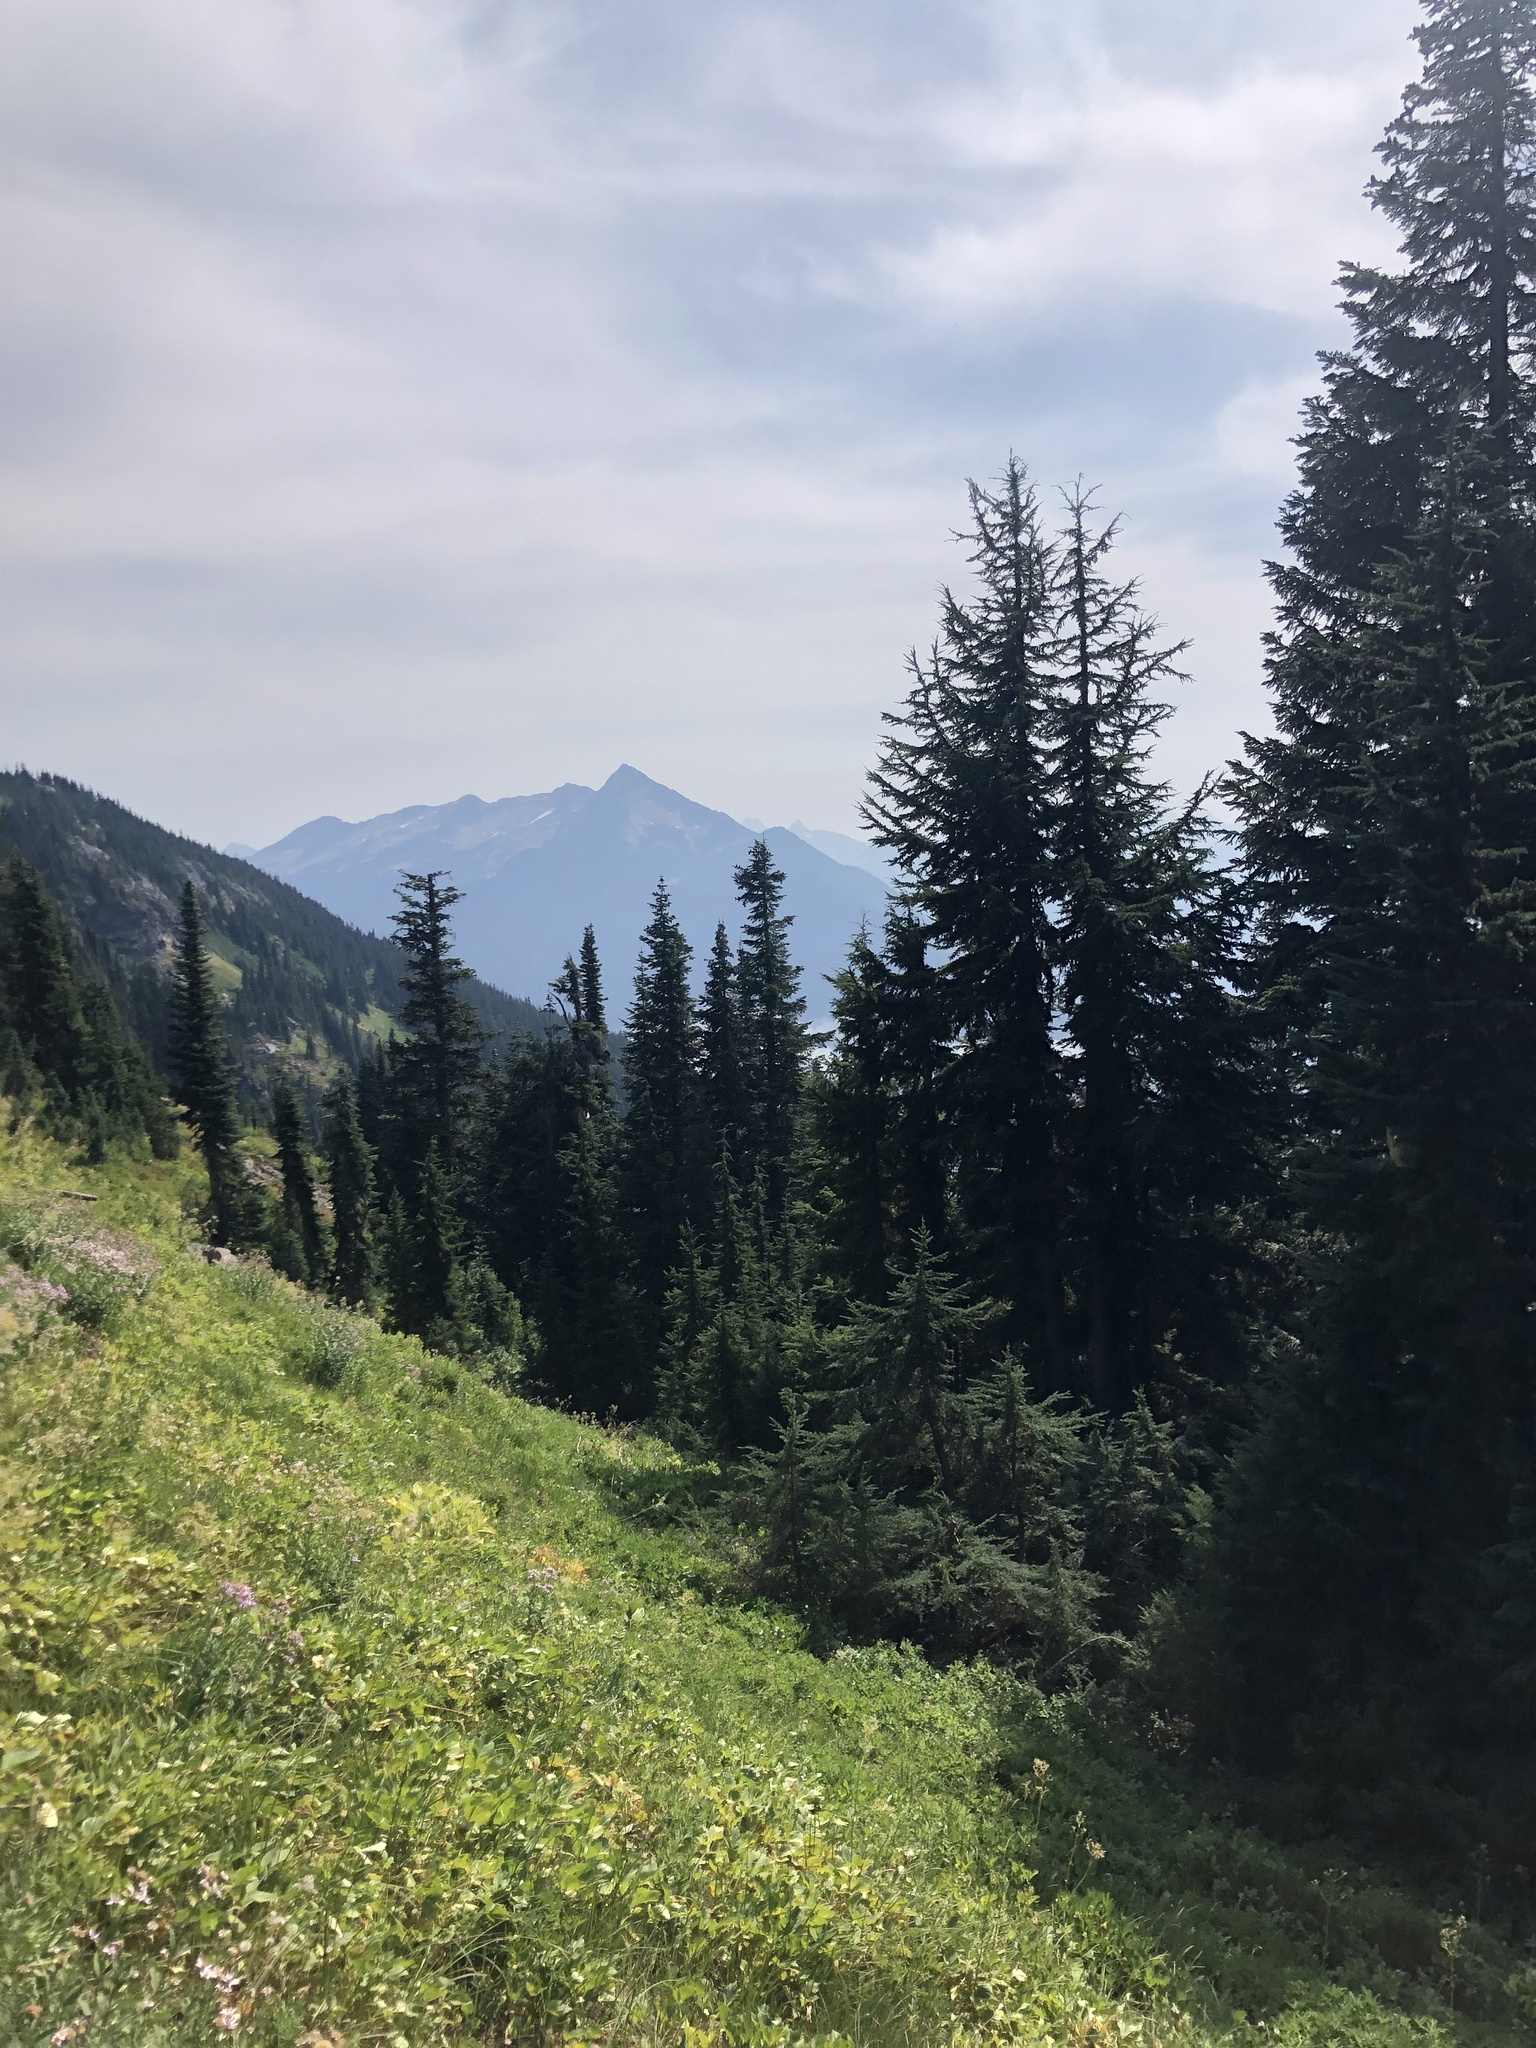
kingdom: Plantae
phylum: Tracheophyta
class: Pinopsida
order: Pinales
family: Pinaceae
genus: Tsuga
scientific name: Tsuga mertensiana
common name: Mountain hemlock
